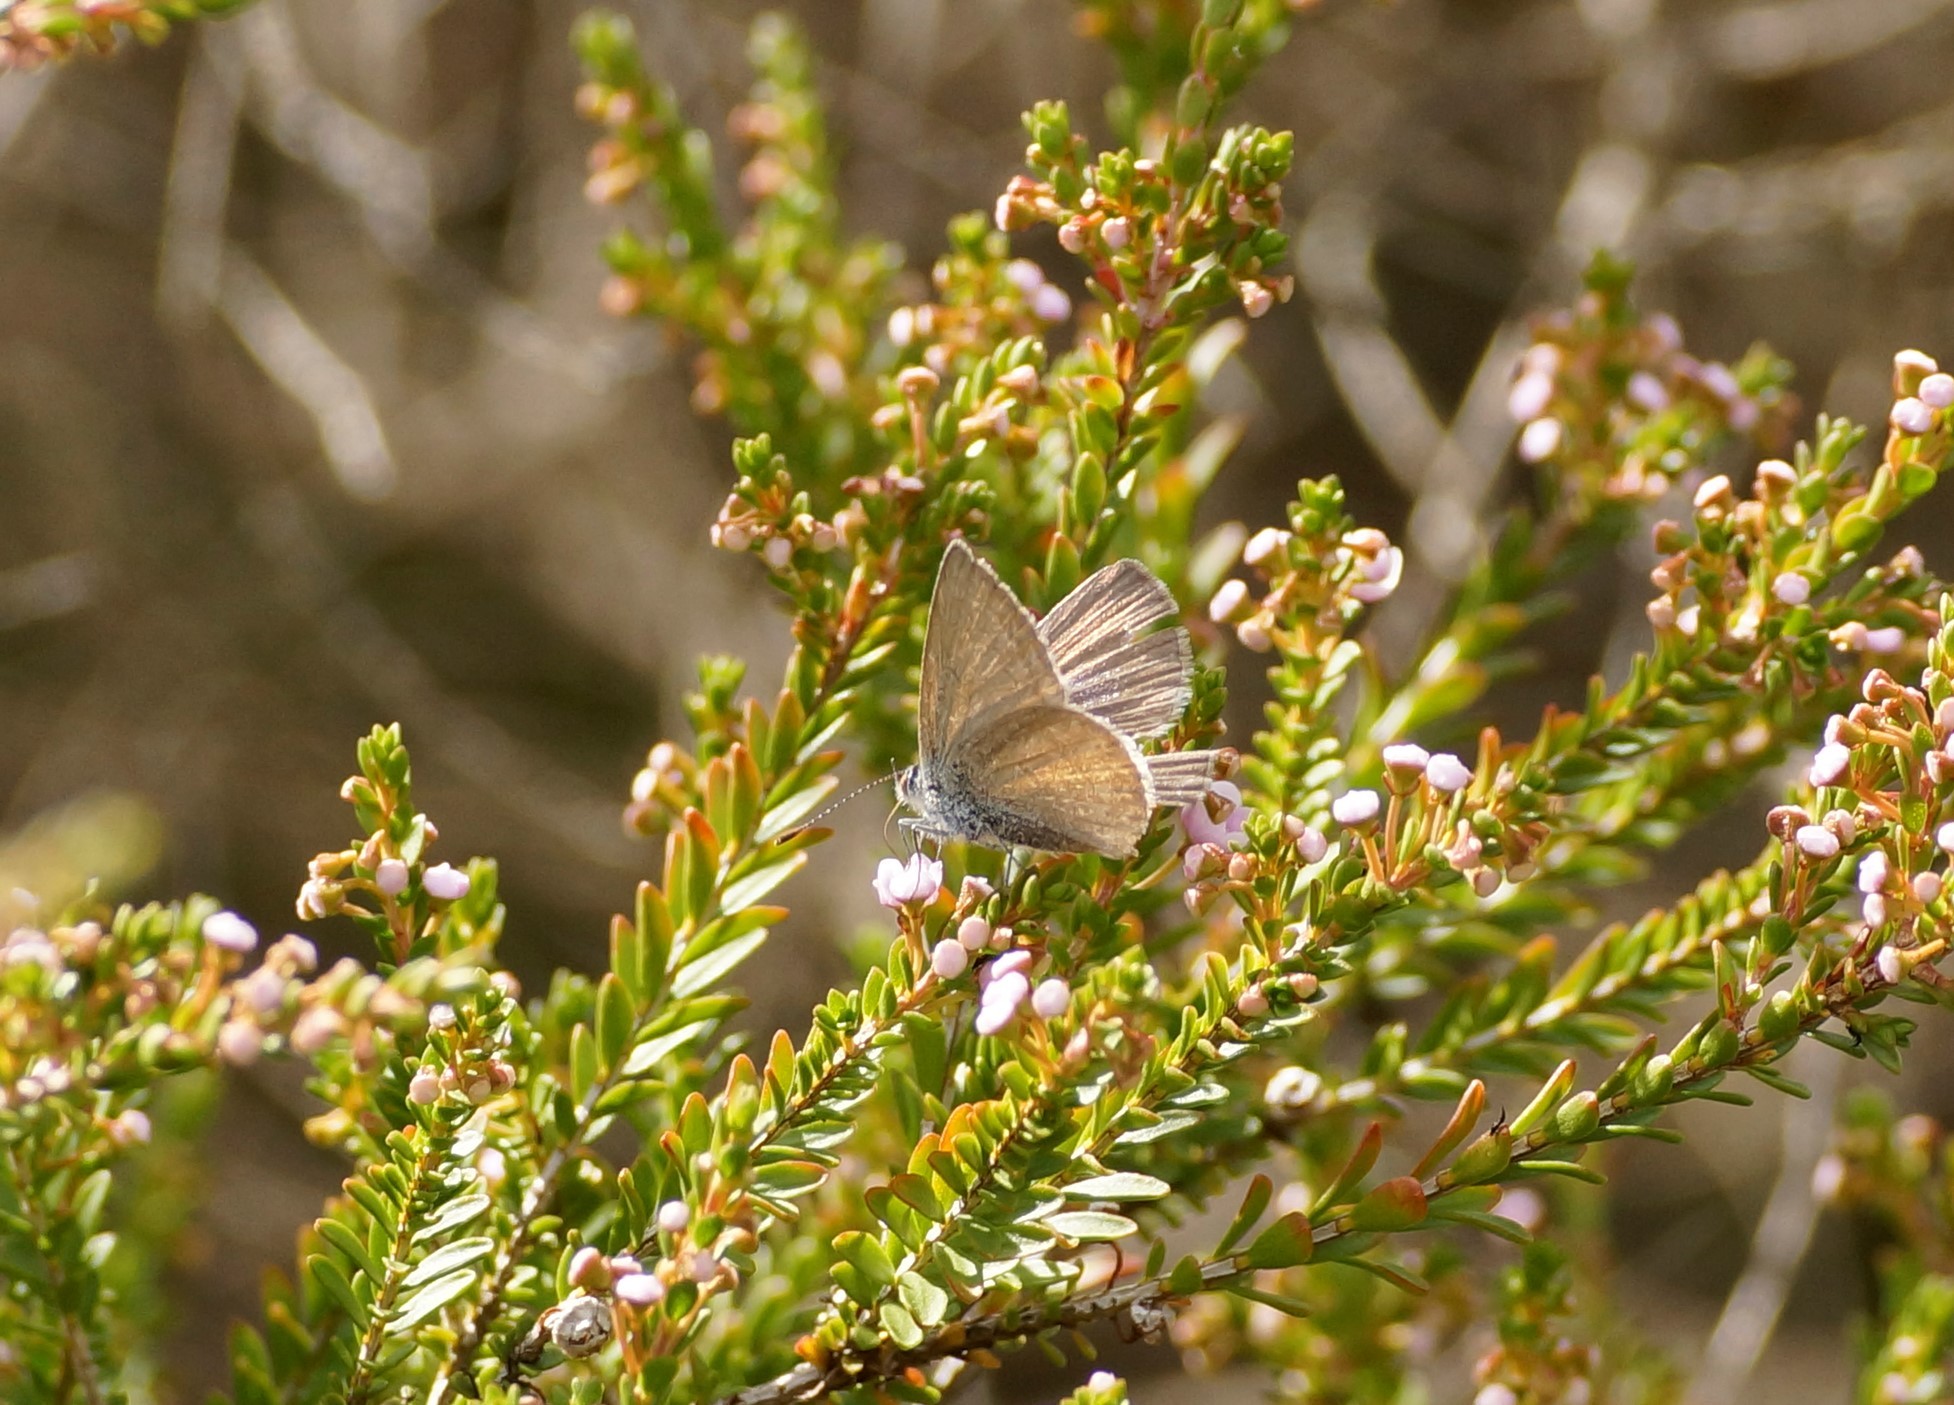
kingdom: Animalia
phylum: Arthropoda
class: Insecta
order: Lepidoptera
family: Lycaenidae
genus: Zizina
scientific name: Zizina labradus
